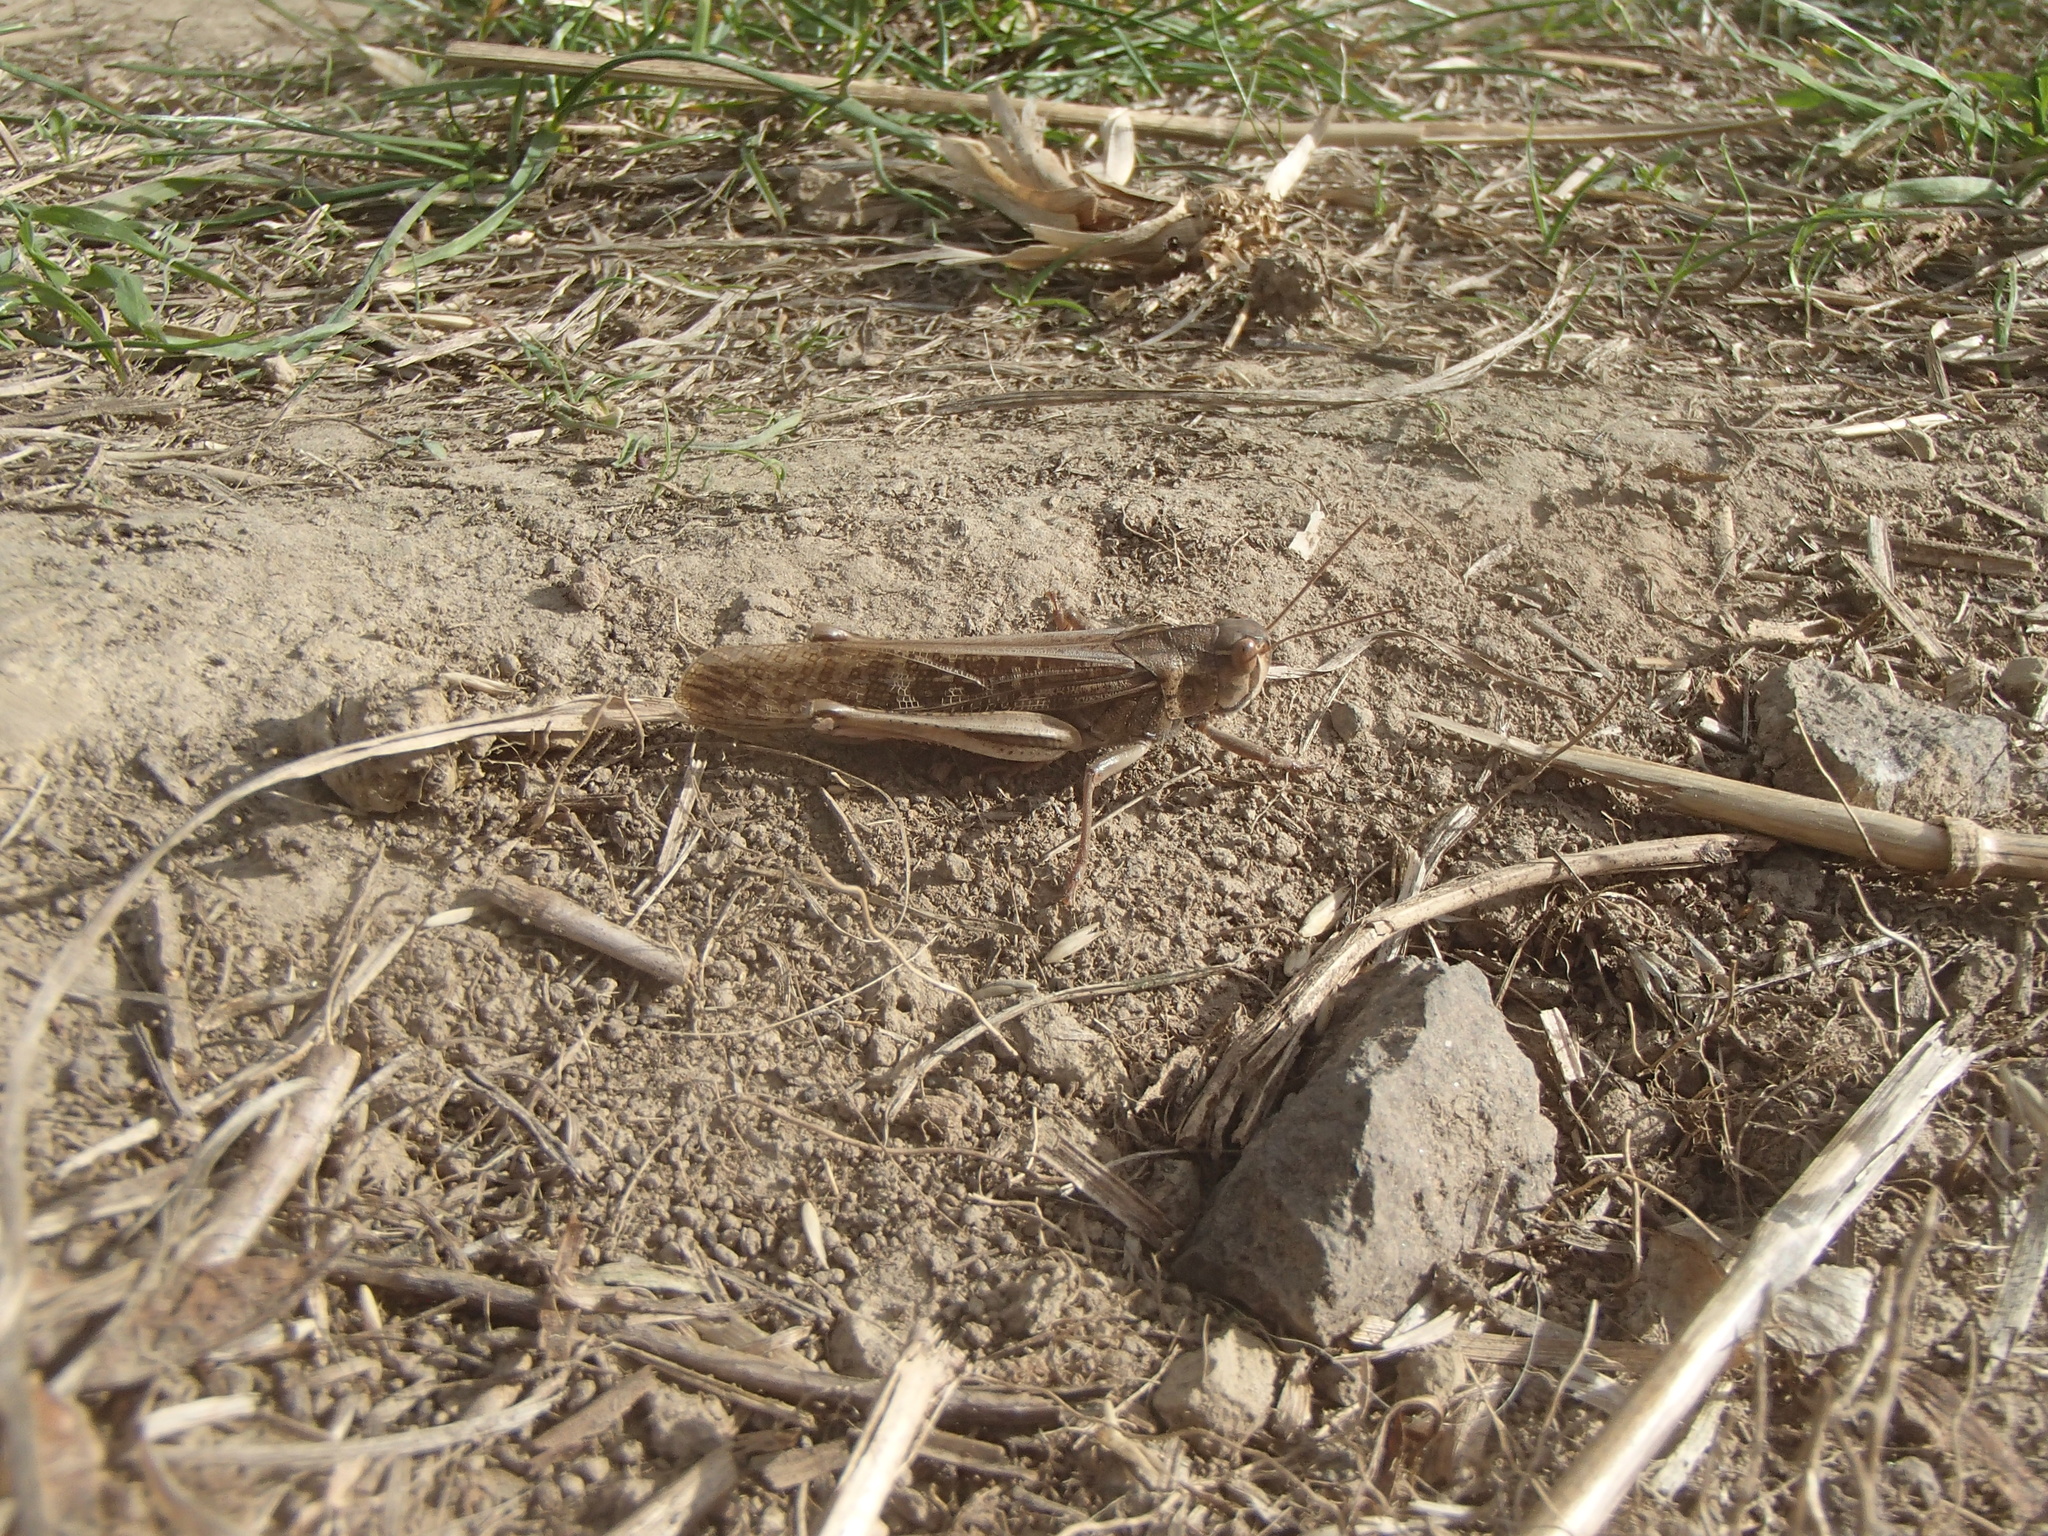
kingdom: Animalia
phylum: Arthropoda
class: Insecta
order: Orthoptera
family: Acrididae
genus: Locusta
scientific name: Locusta migratoria
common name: Migratory locust
